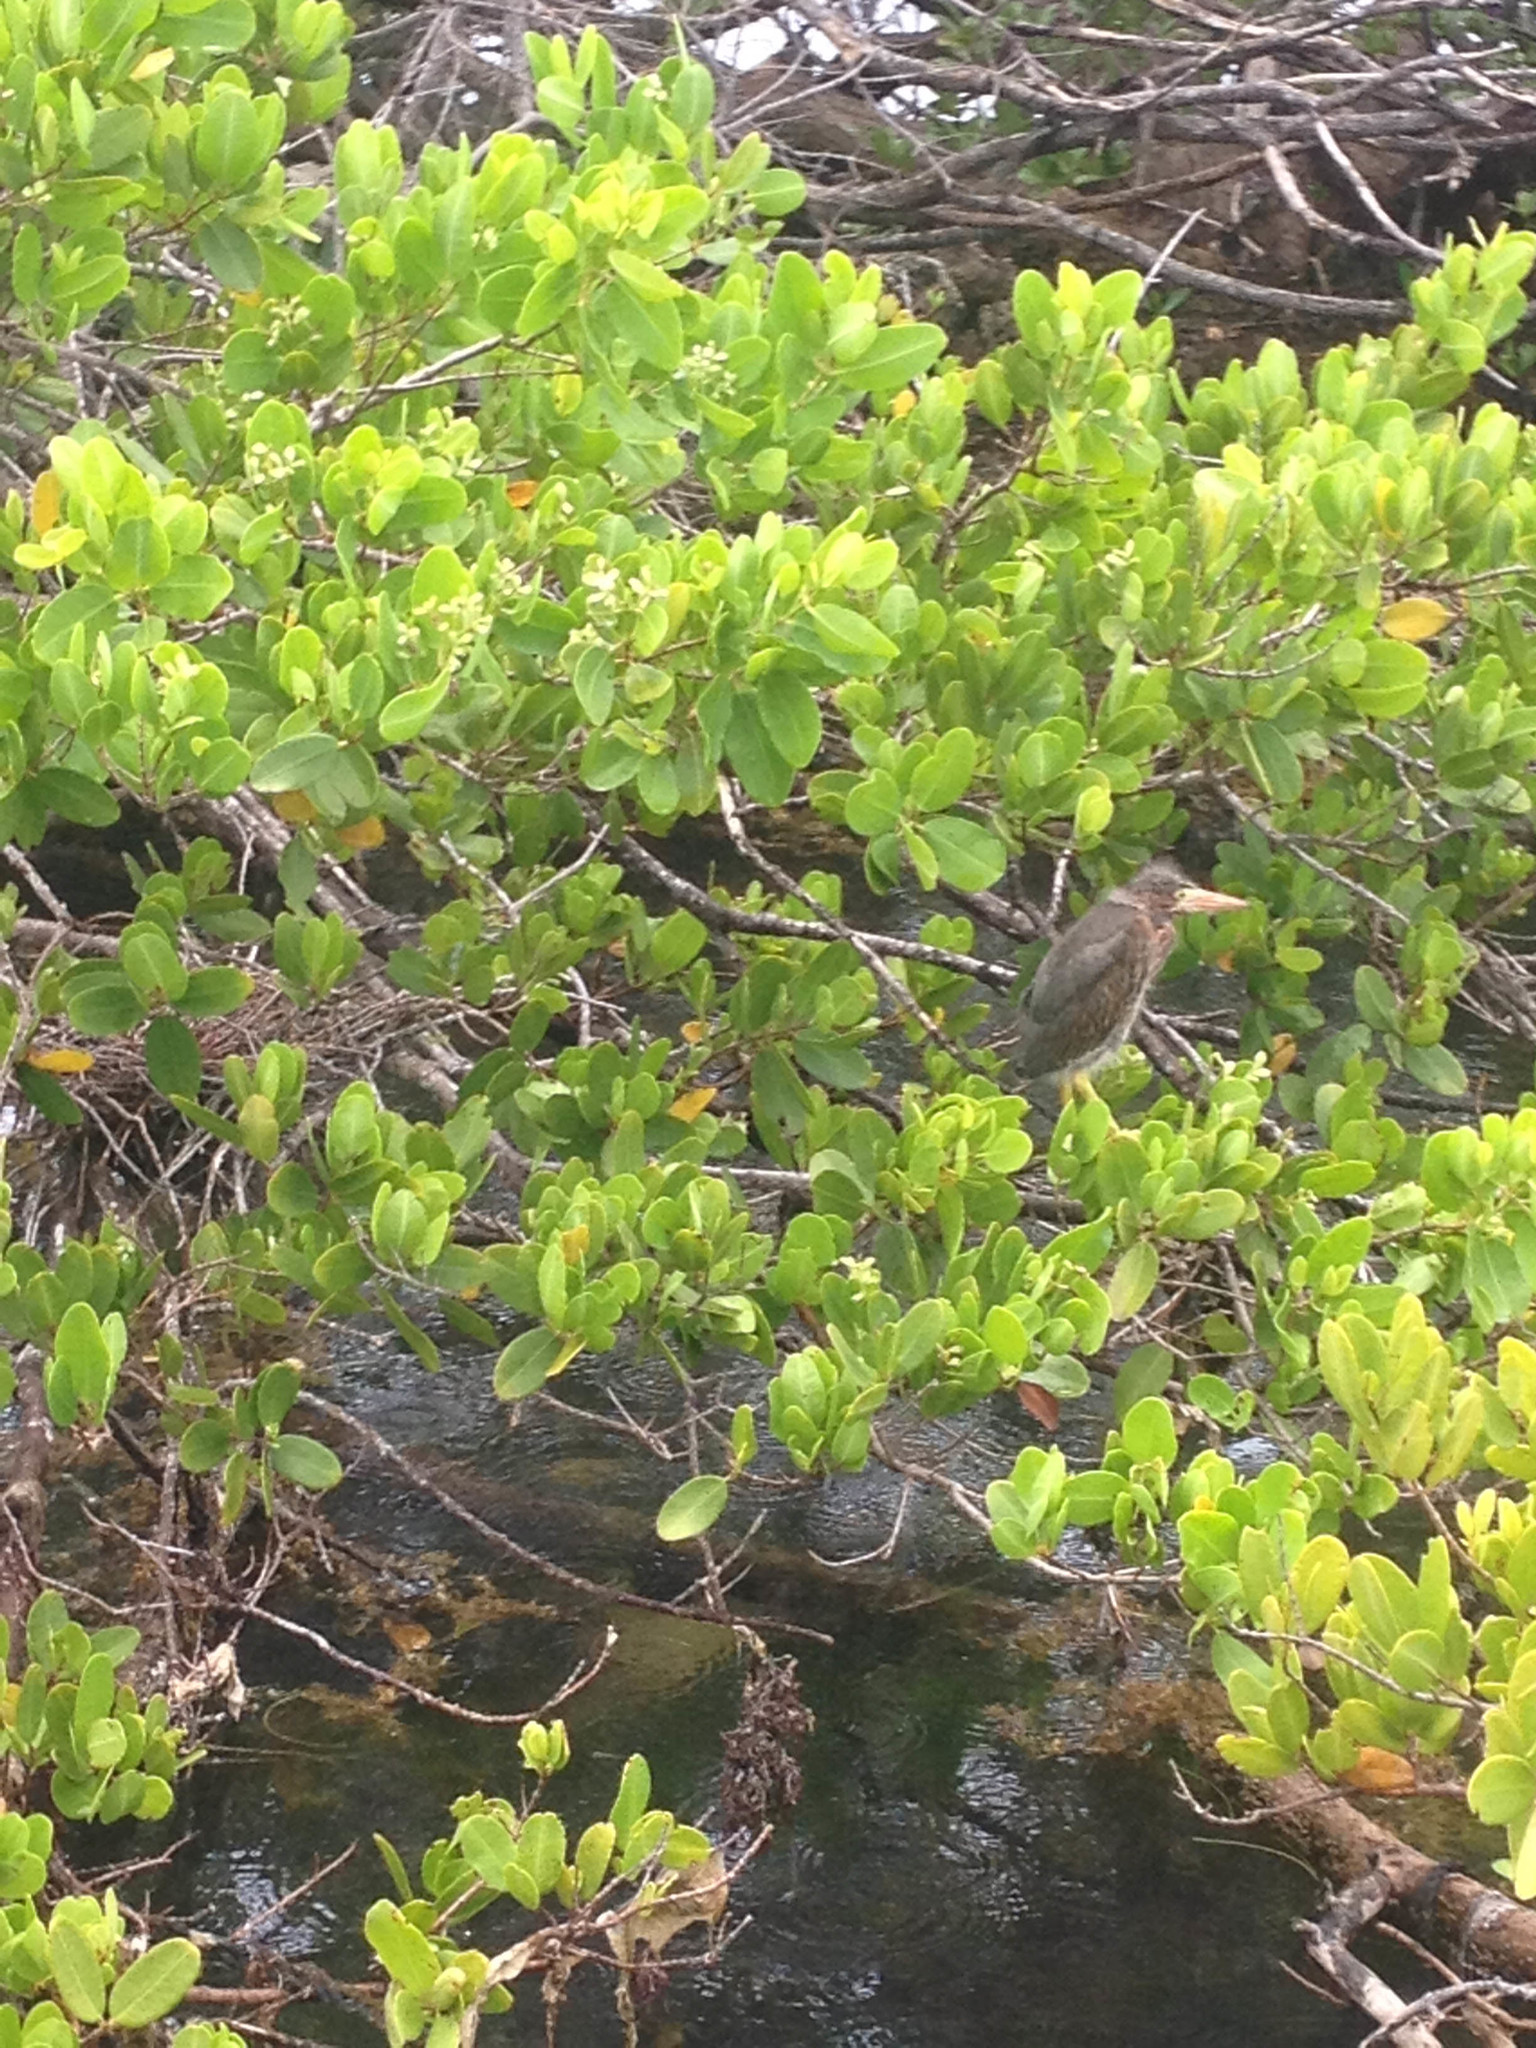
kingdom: Animalia
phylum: Chordata
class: Aves
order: Pelecaniformes
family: Ardeidae
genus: Butorides
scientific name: Butorides virescens
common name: Green heron
